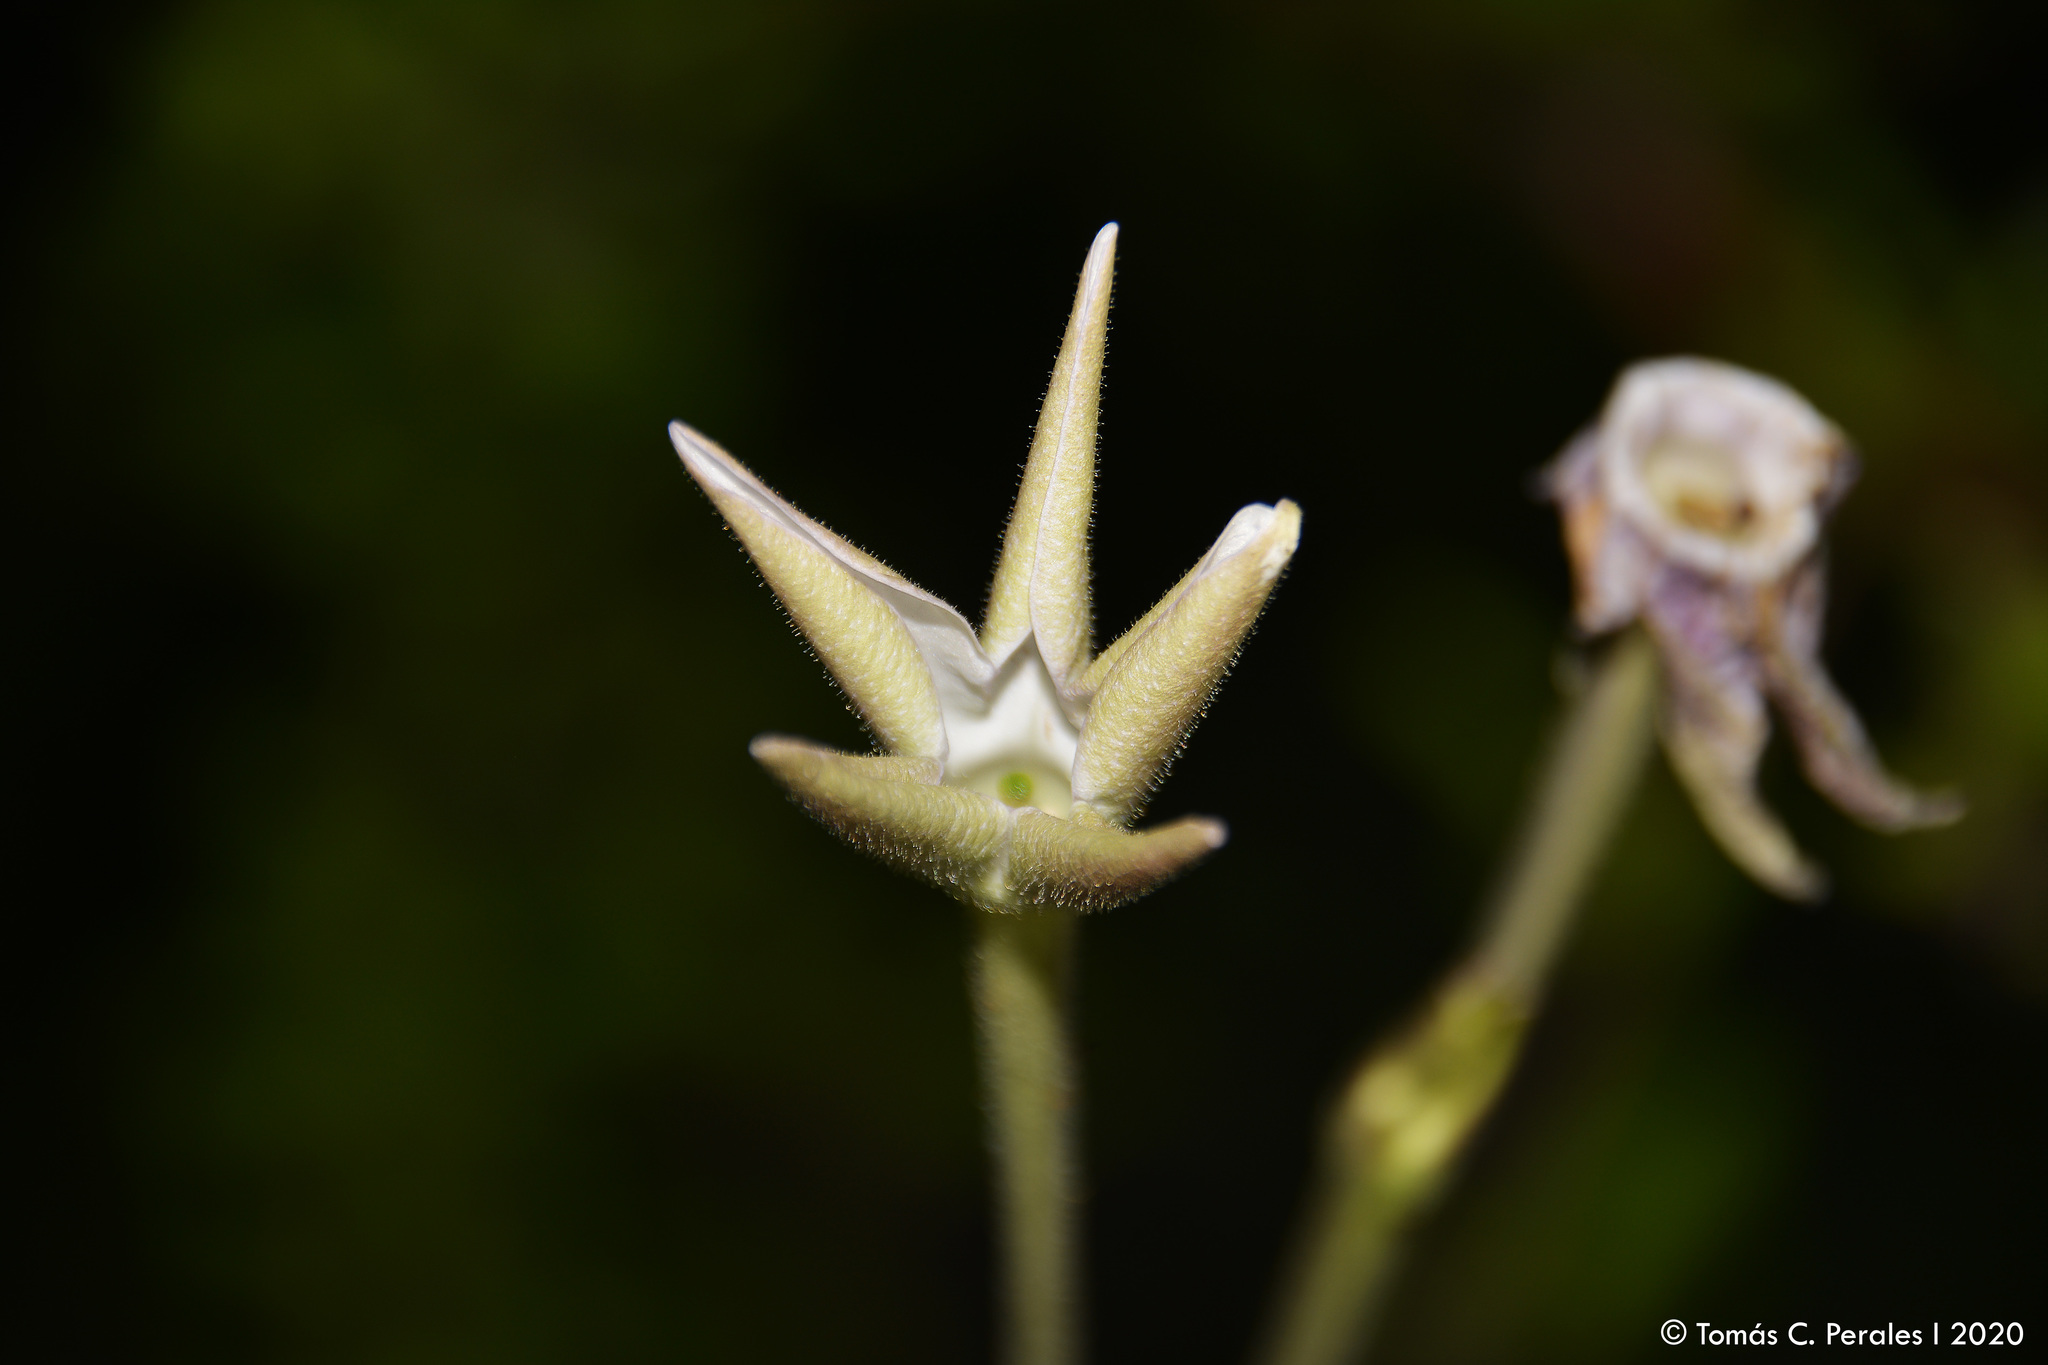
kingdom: Plantae
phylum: Tracheophyta
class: Magnoliopsida
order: Solanales
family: Solanaceae
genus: Nicotiana
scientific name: Nicotiana longiflora
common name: Long-flowered tobacco
